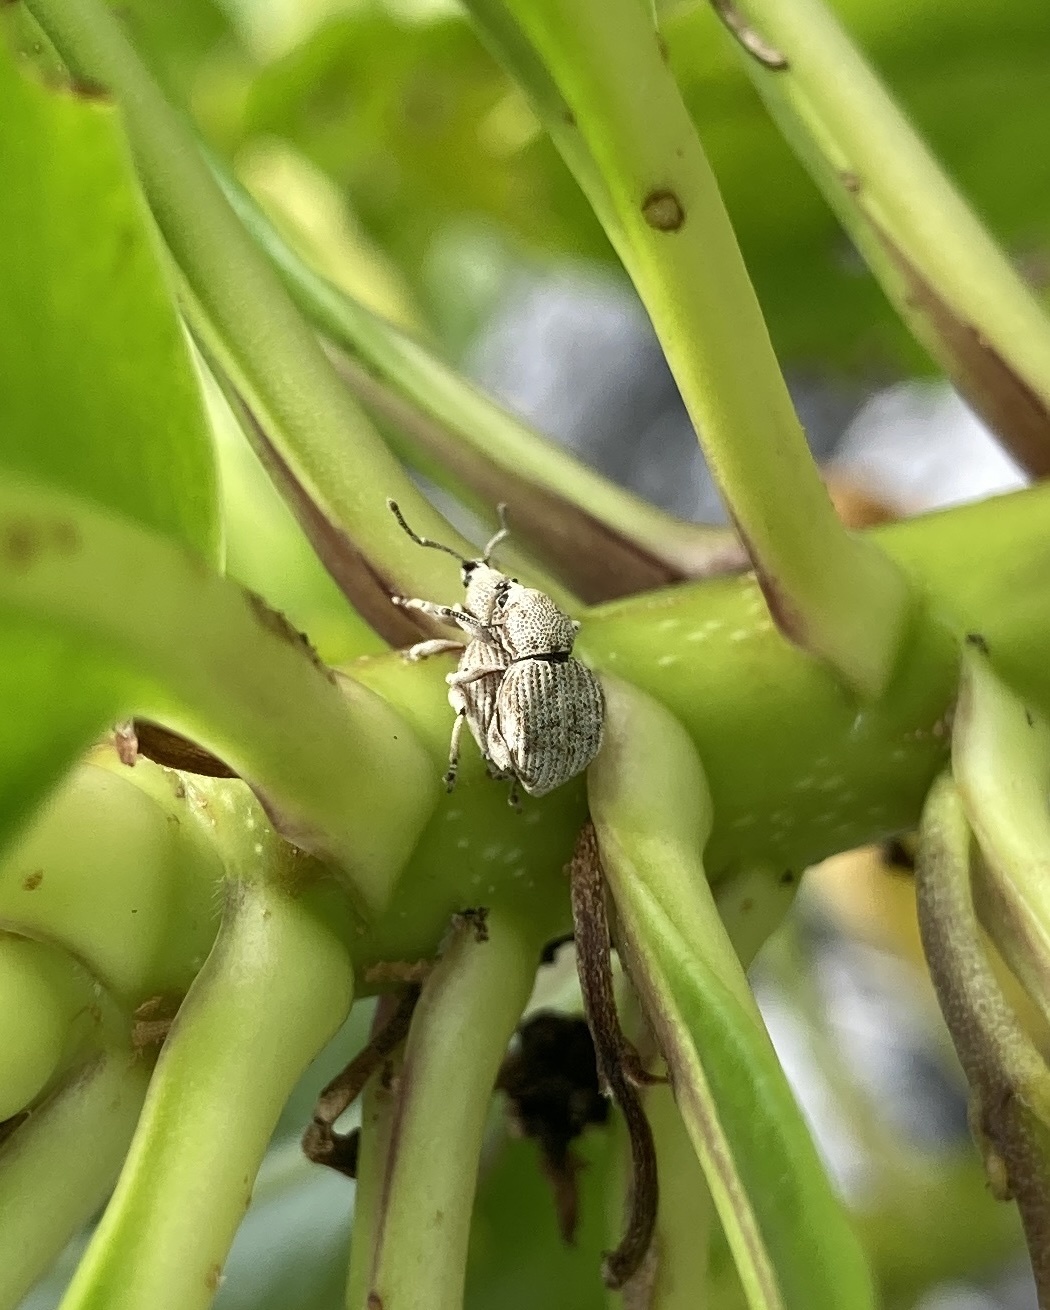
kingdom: Animalia
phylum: Arthropoda
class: Insecta
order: Coleoptera
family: Curculionidae
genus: Platysimus
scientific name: Platysimus insularis
